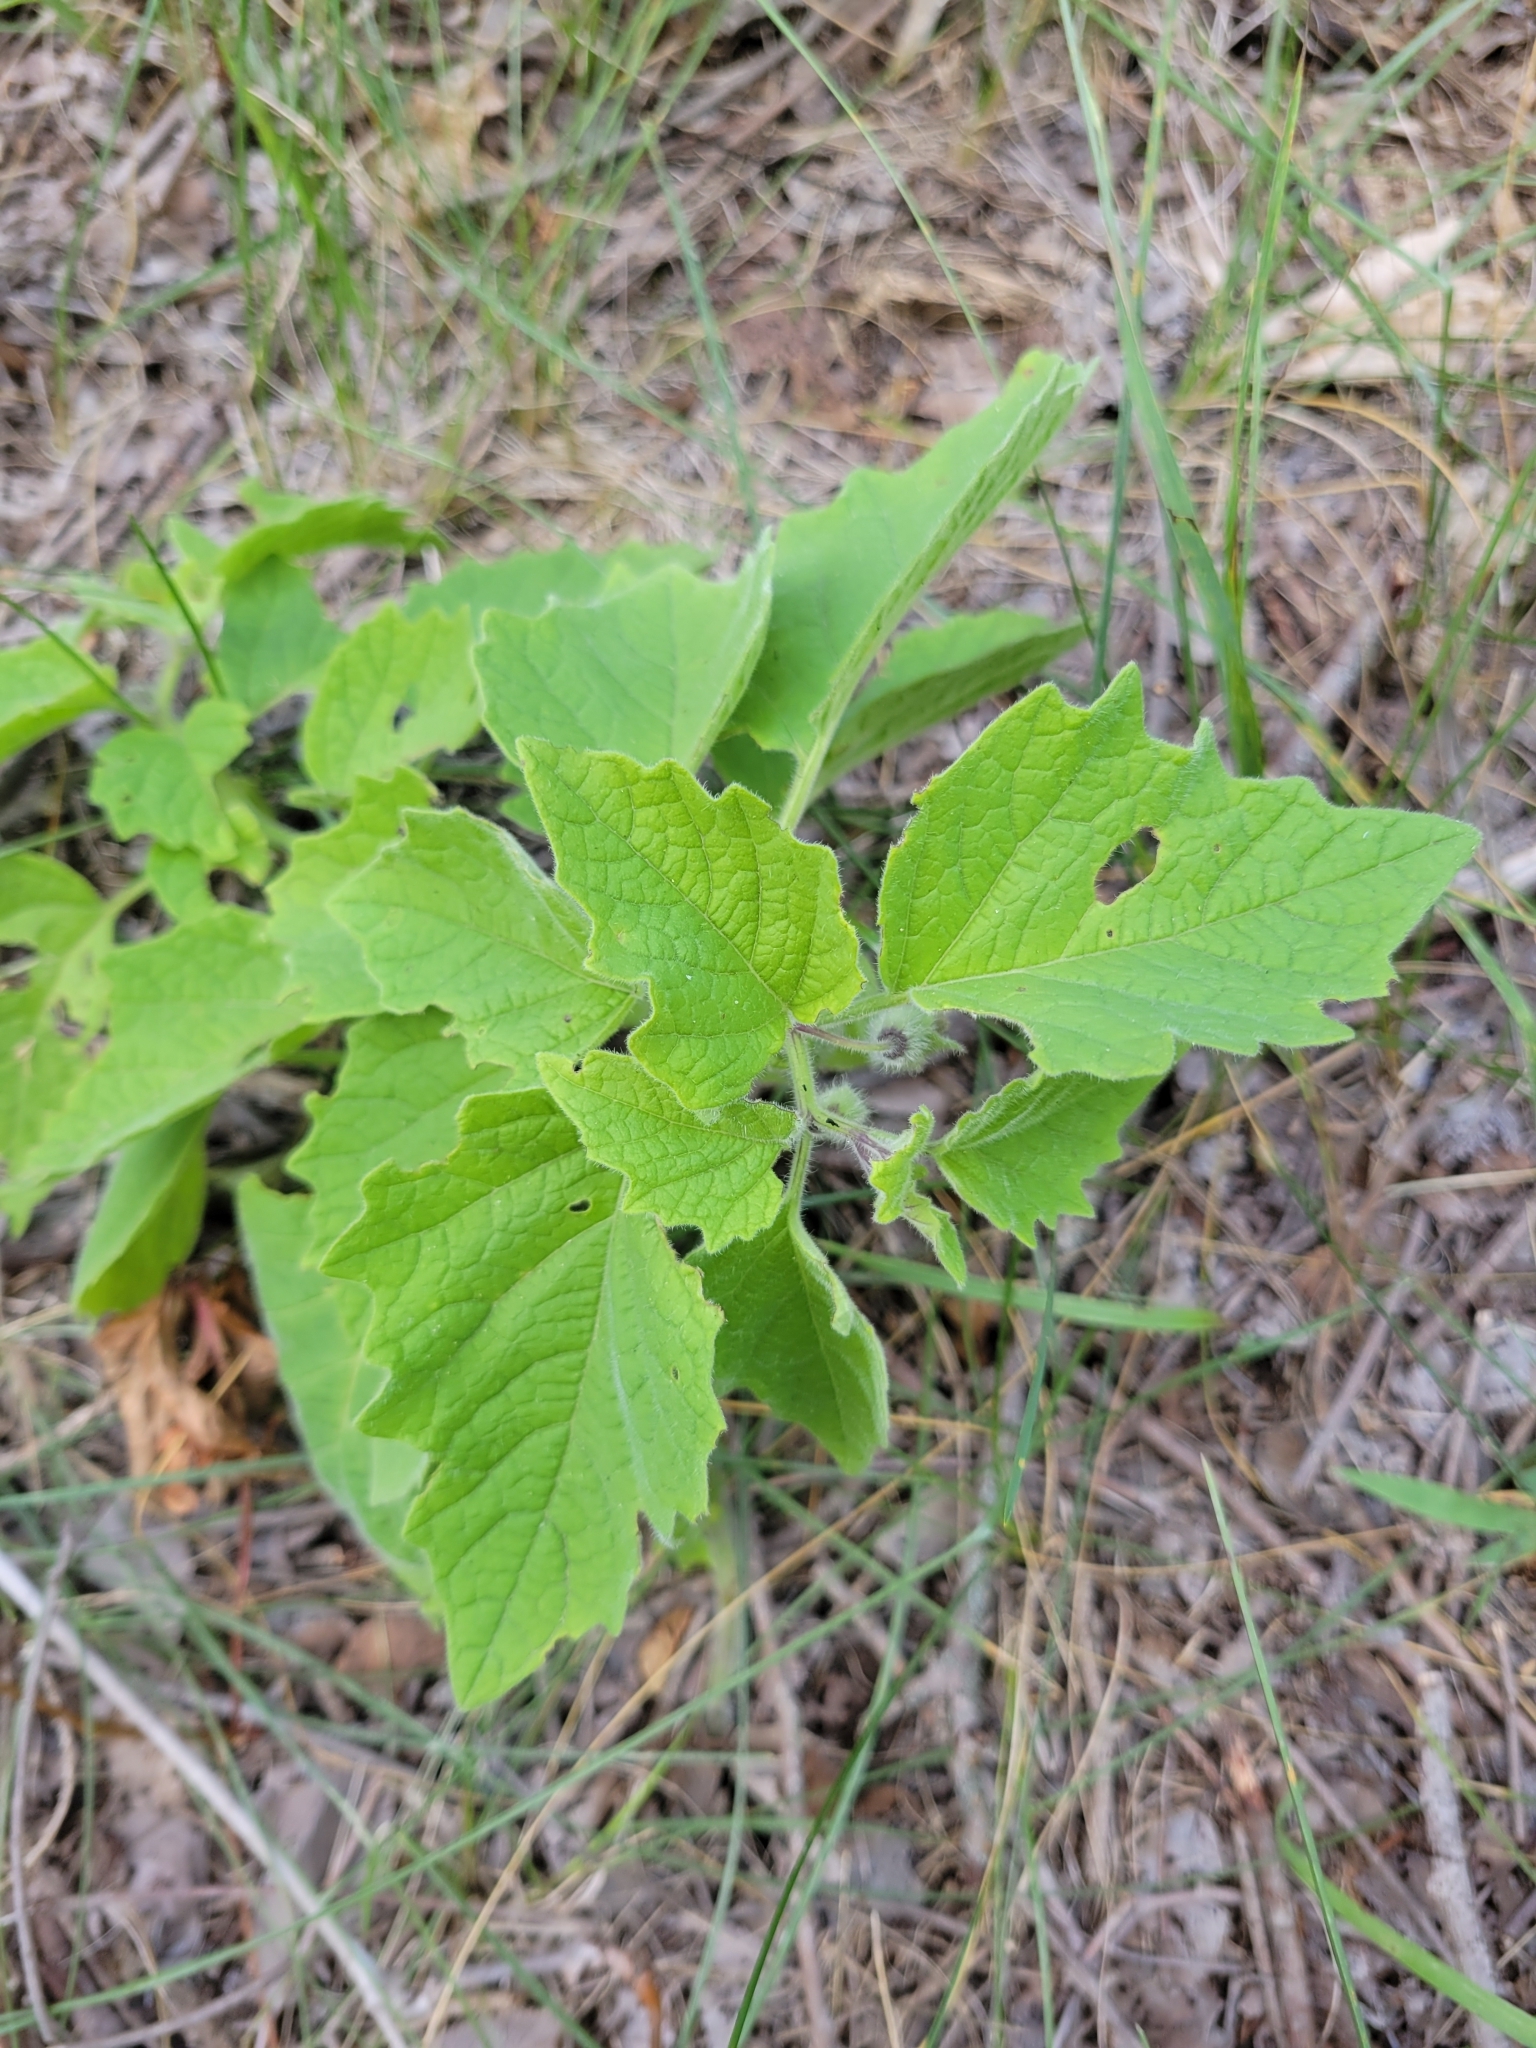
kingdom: Plantae
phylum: Tracheophyta
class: Magnoliopsida
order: Solanales
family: Solanaceae
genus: Physalis
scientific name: Physalis heterophylla
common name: Clammy ground-cherry
